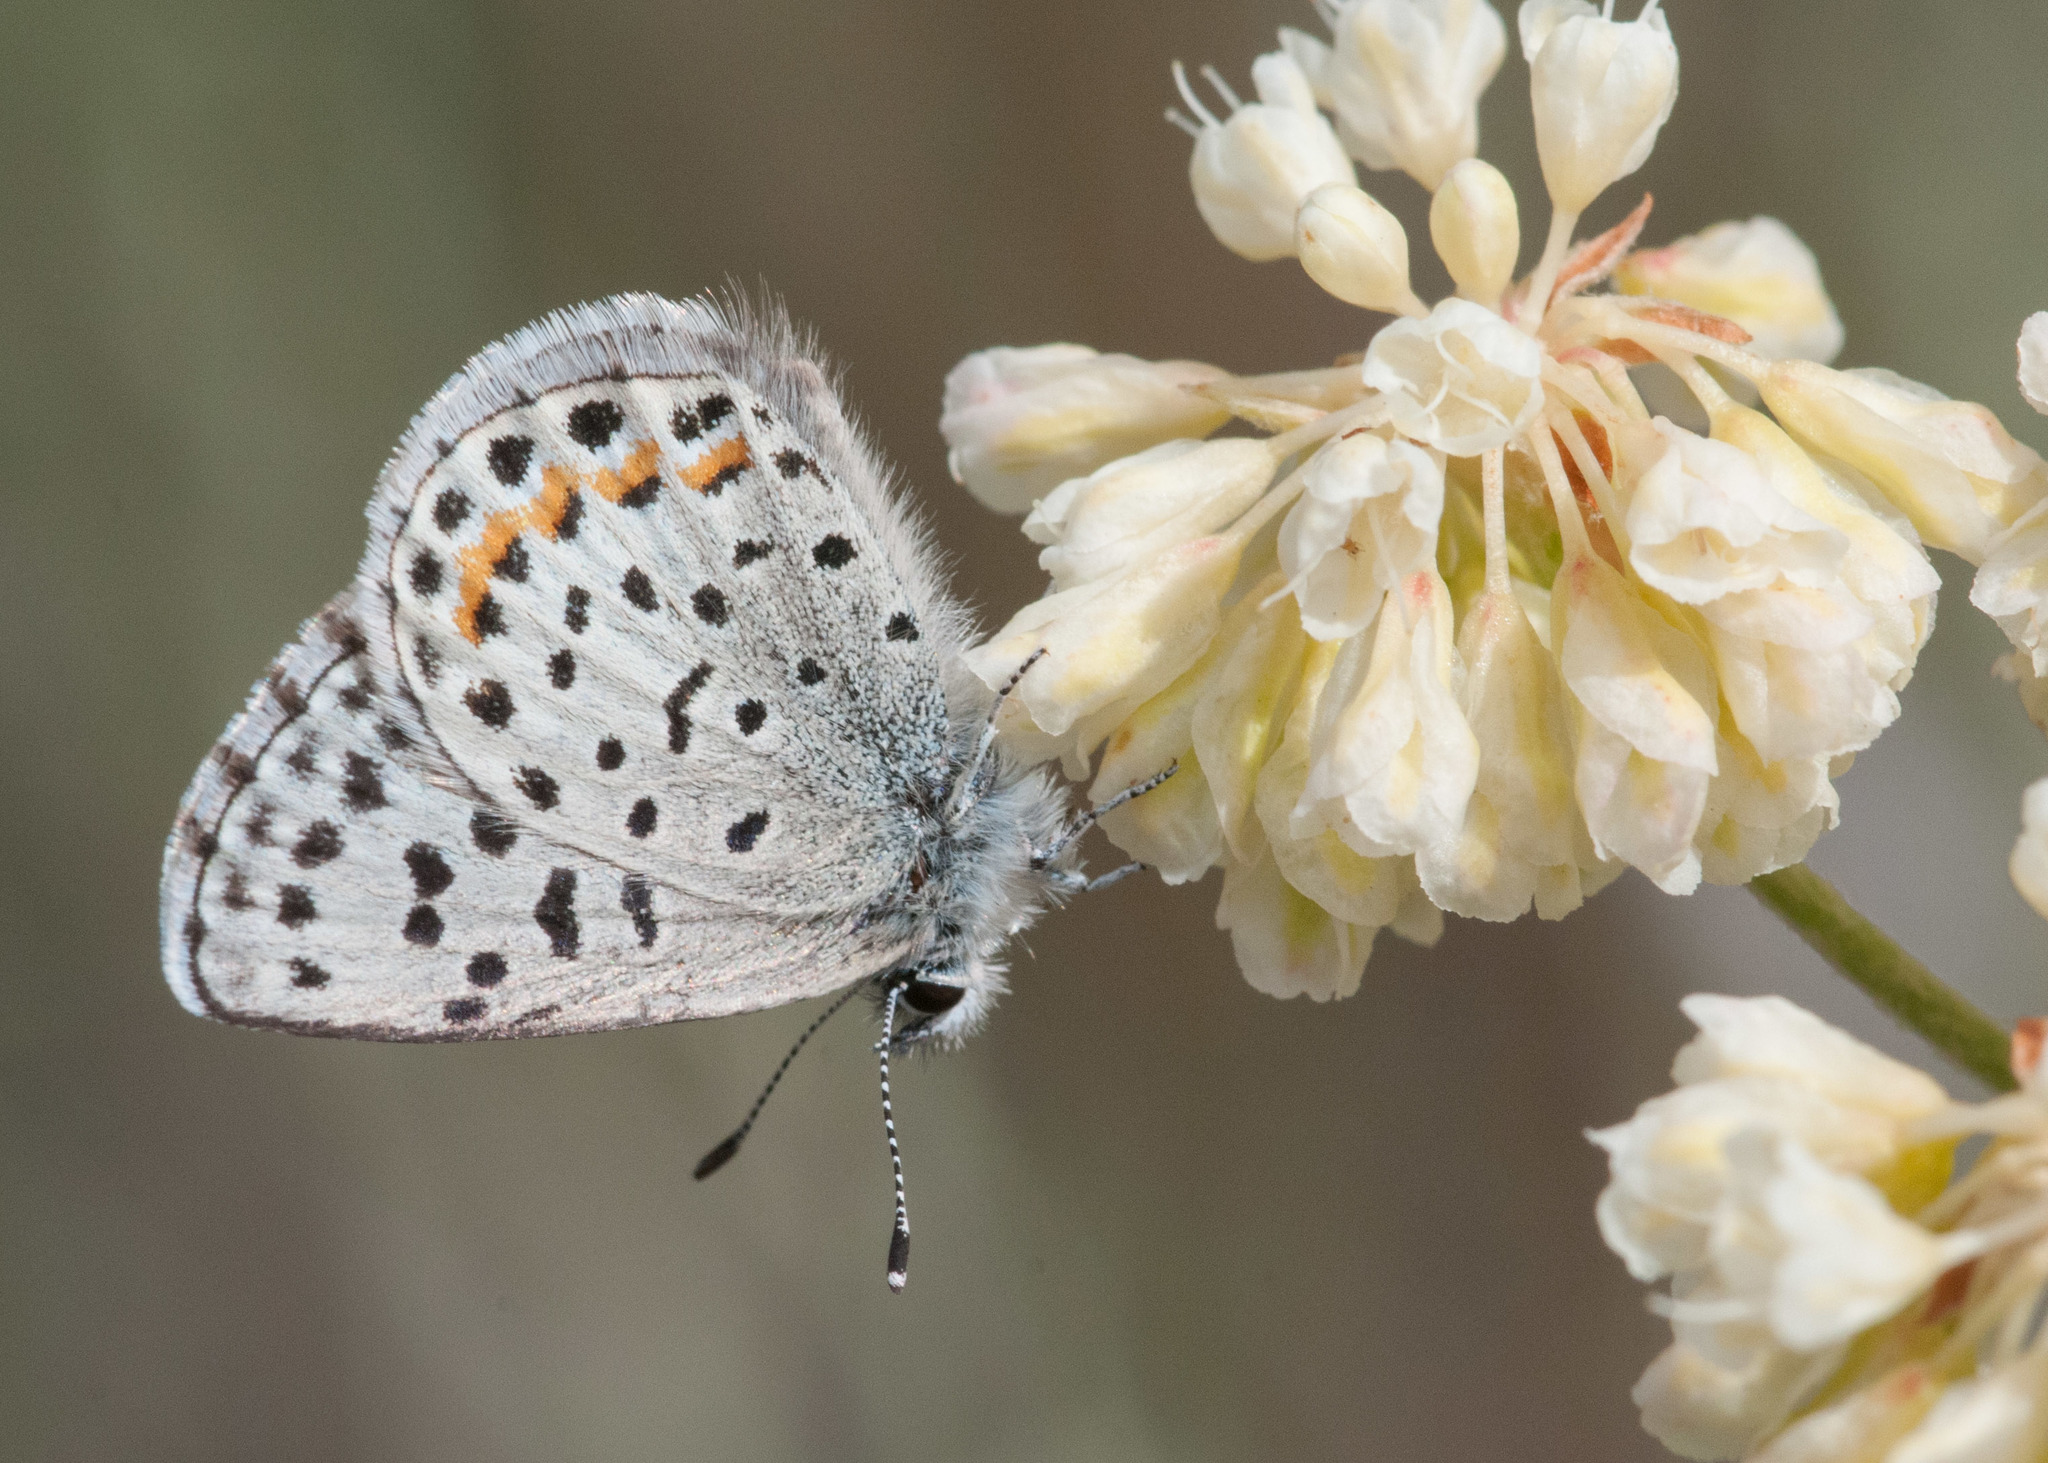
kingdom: Animalia
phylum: Arthropoda
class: Insecta
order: Lepidoptera
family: Lycaenidae
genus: Euphilotes
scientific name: Euphilotes enoptes
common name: Dotted blue
